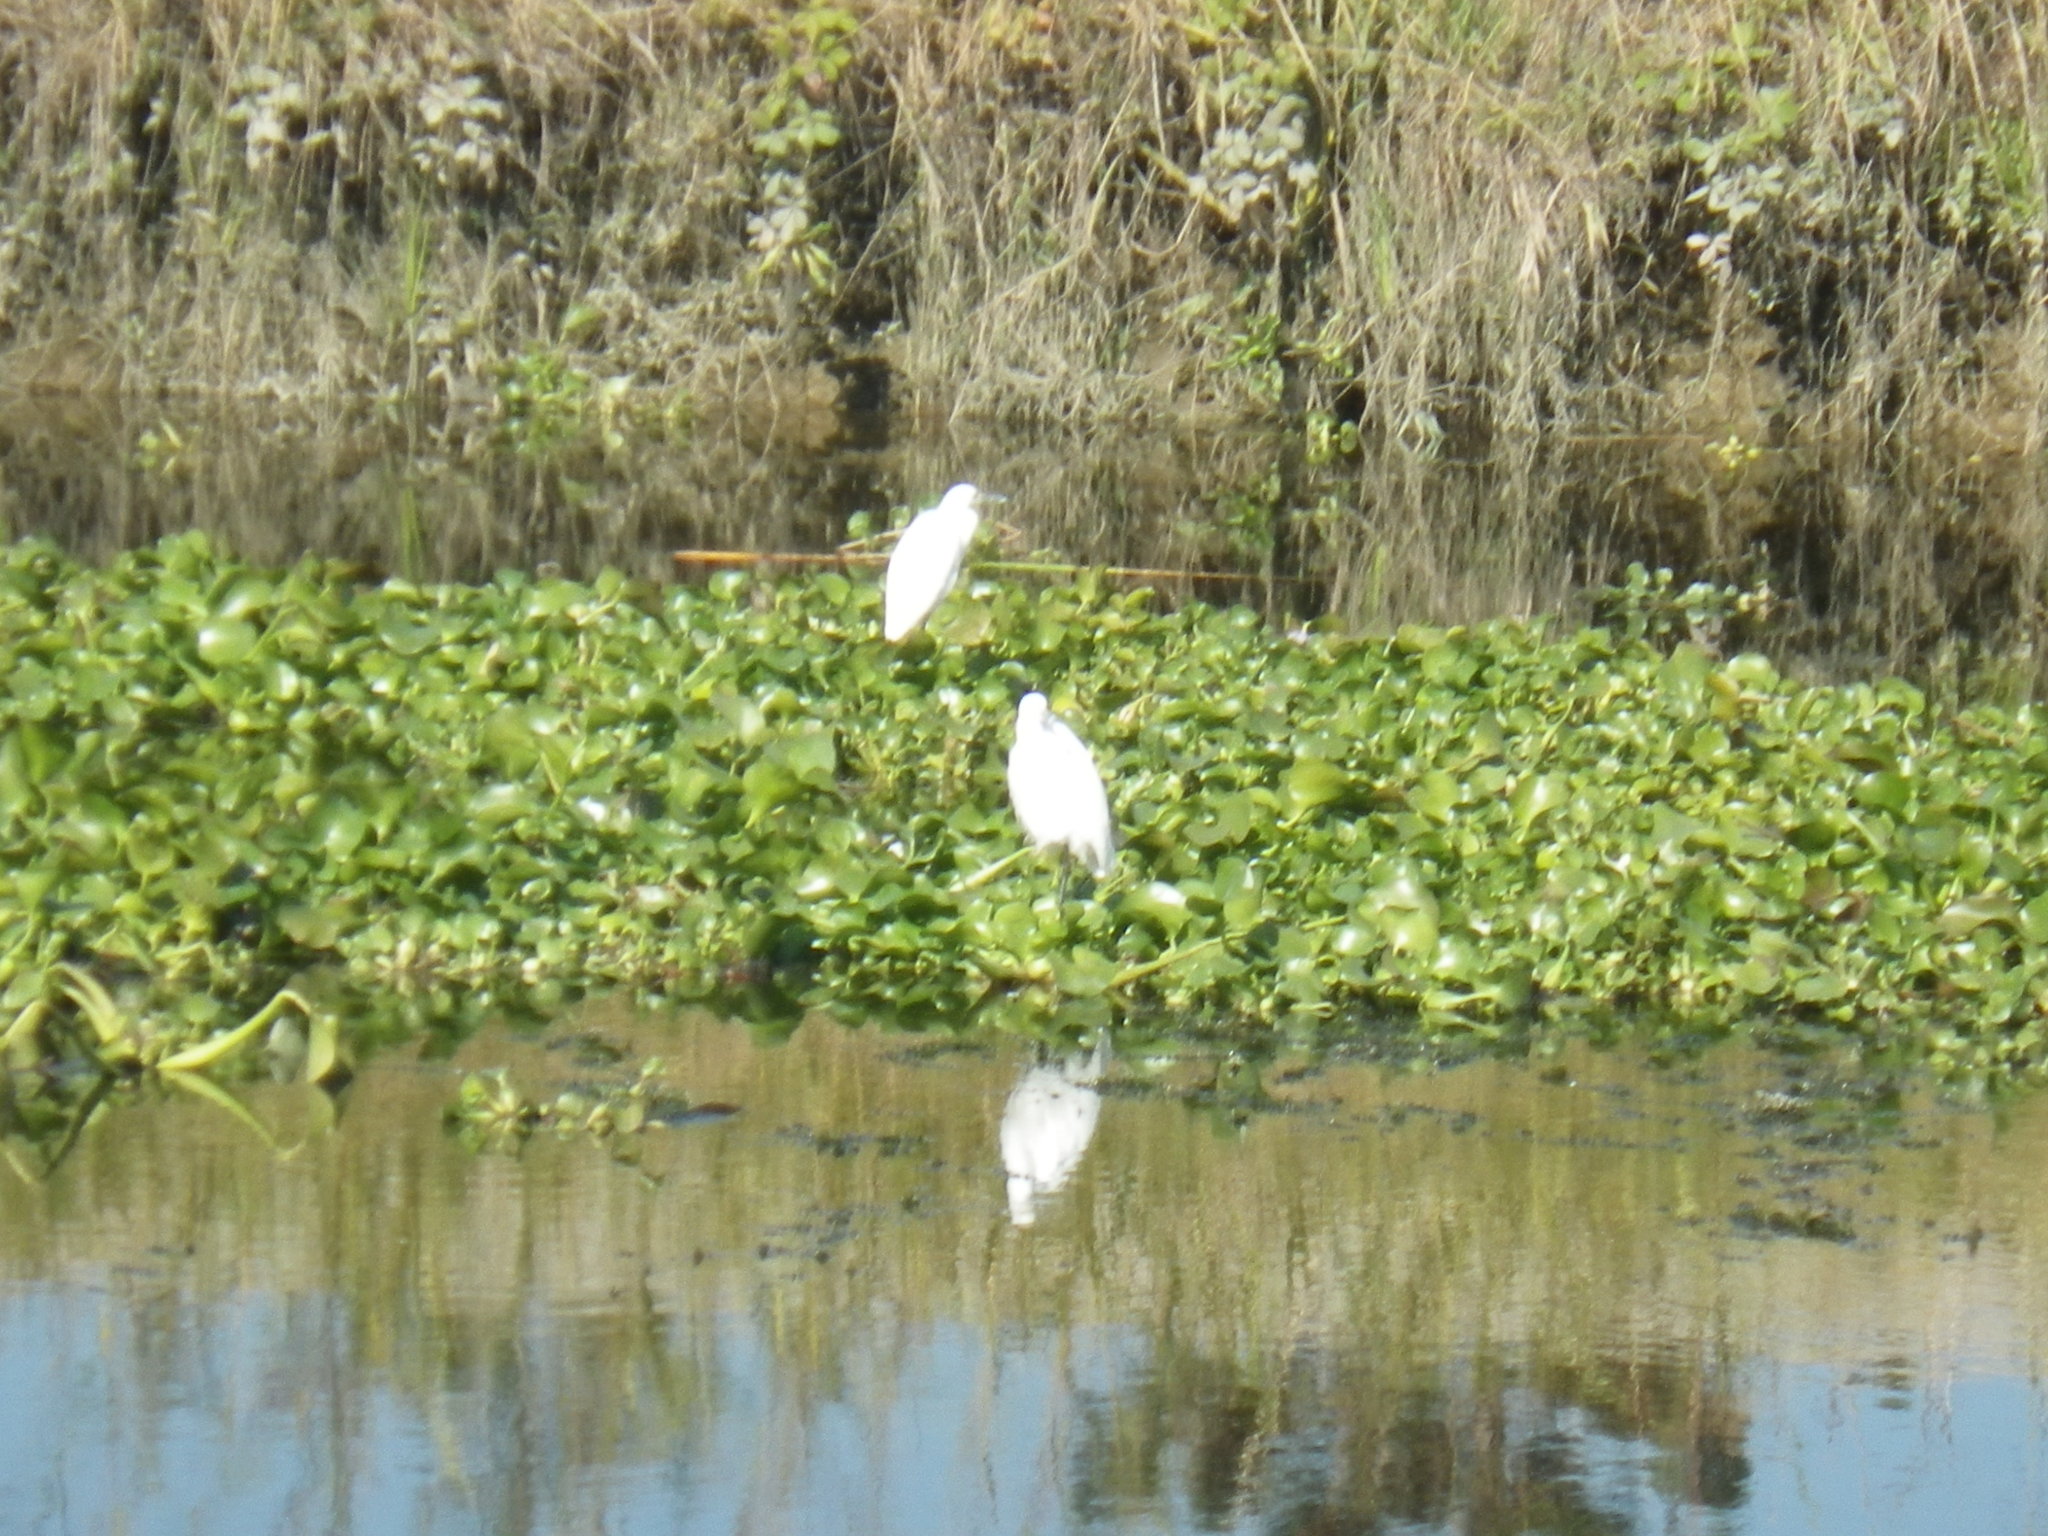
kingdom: Animalia
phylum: Chordata
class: Aves
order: Pelecaniformes
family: Ardeidae
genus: Egretta
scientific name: Egretta thula
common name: Snowy egret
